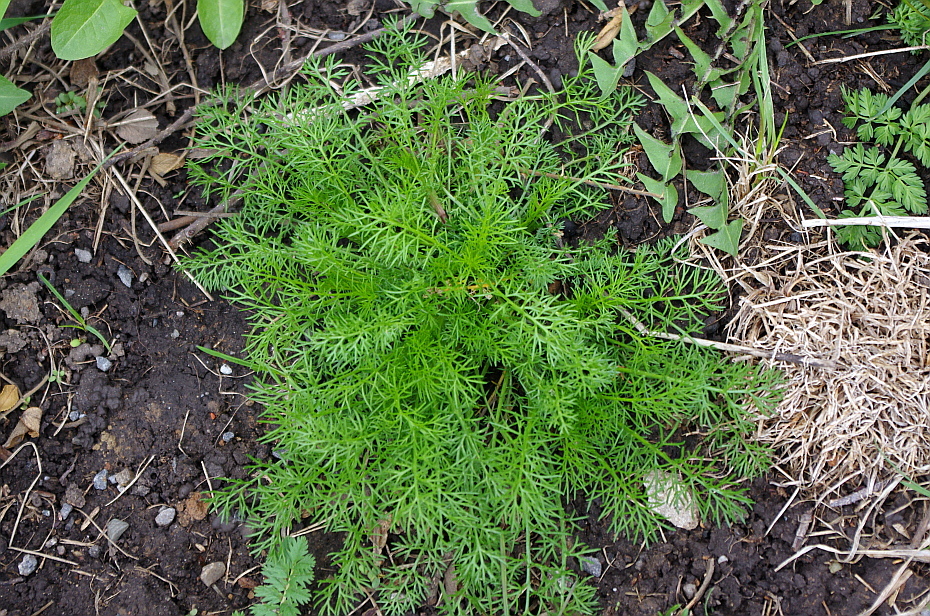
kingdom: Plantae
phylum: Tracheophyta
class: Magnoliopsida
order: Asterales
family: Asteraceae
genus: Tripleurospermum
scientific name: Tripleurospermum inodorum
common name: Scentless mayweed
